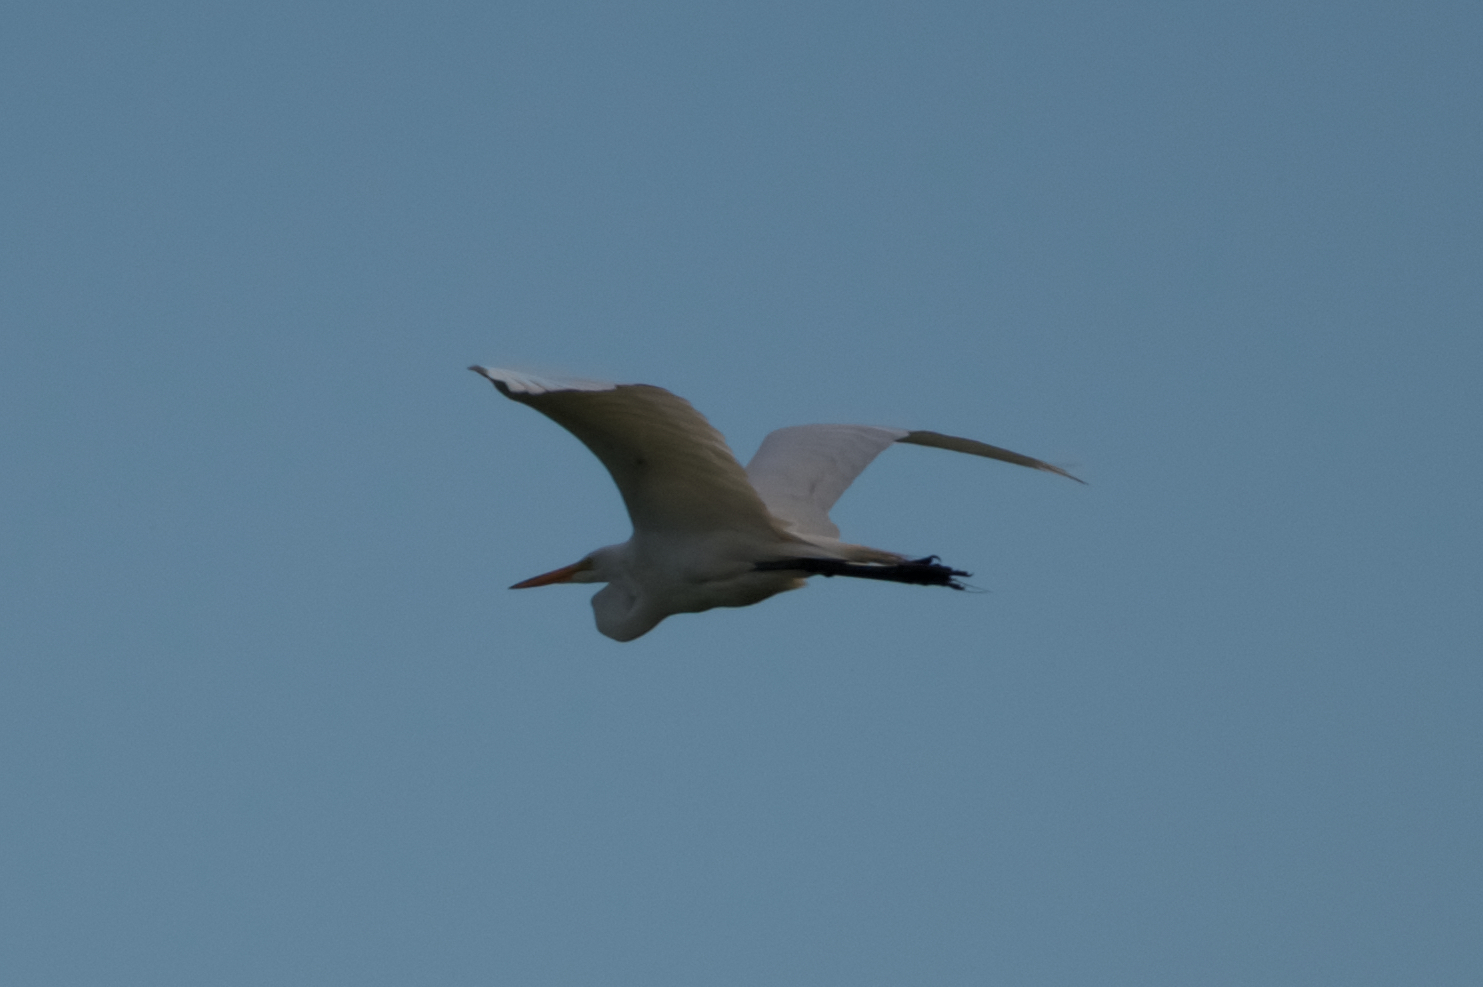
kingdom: Animalia
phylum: Chordata
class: Aves
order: Pelecaniformes
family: Ardeidae
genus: Ardea
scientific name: Ardea alba
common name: Great egret
